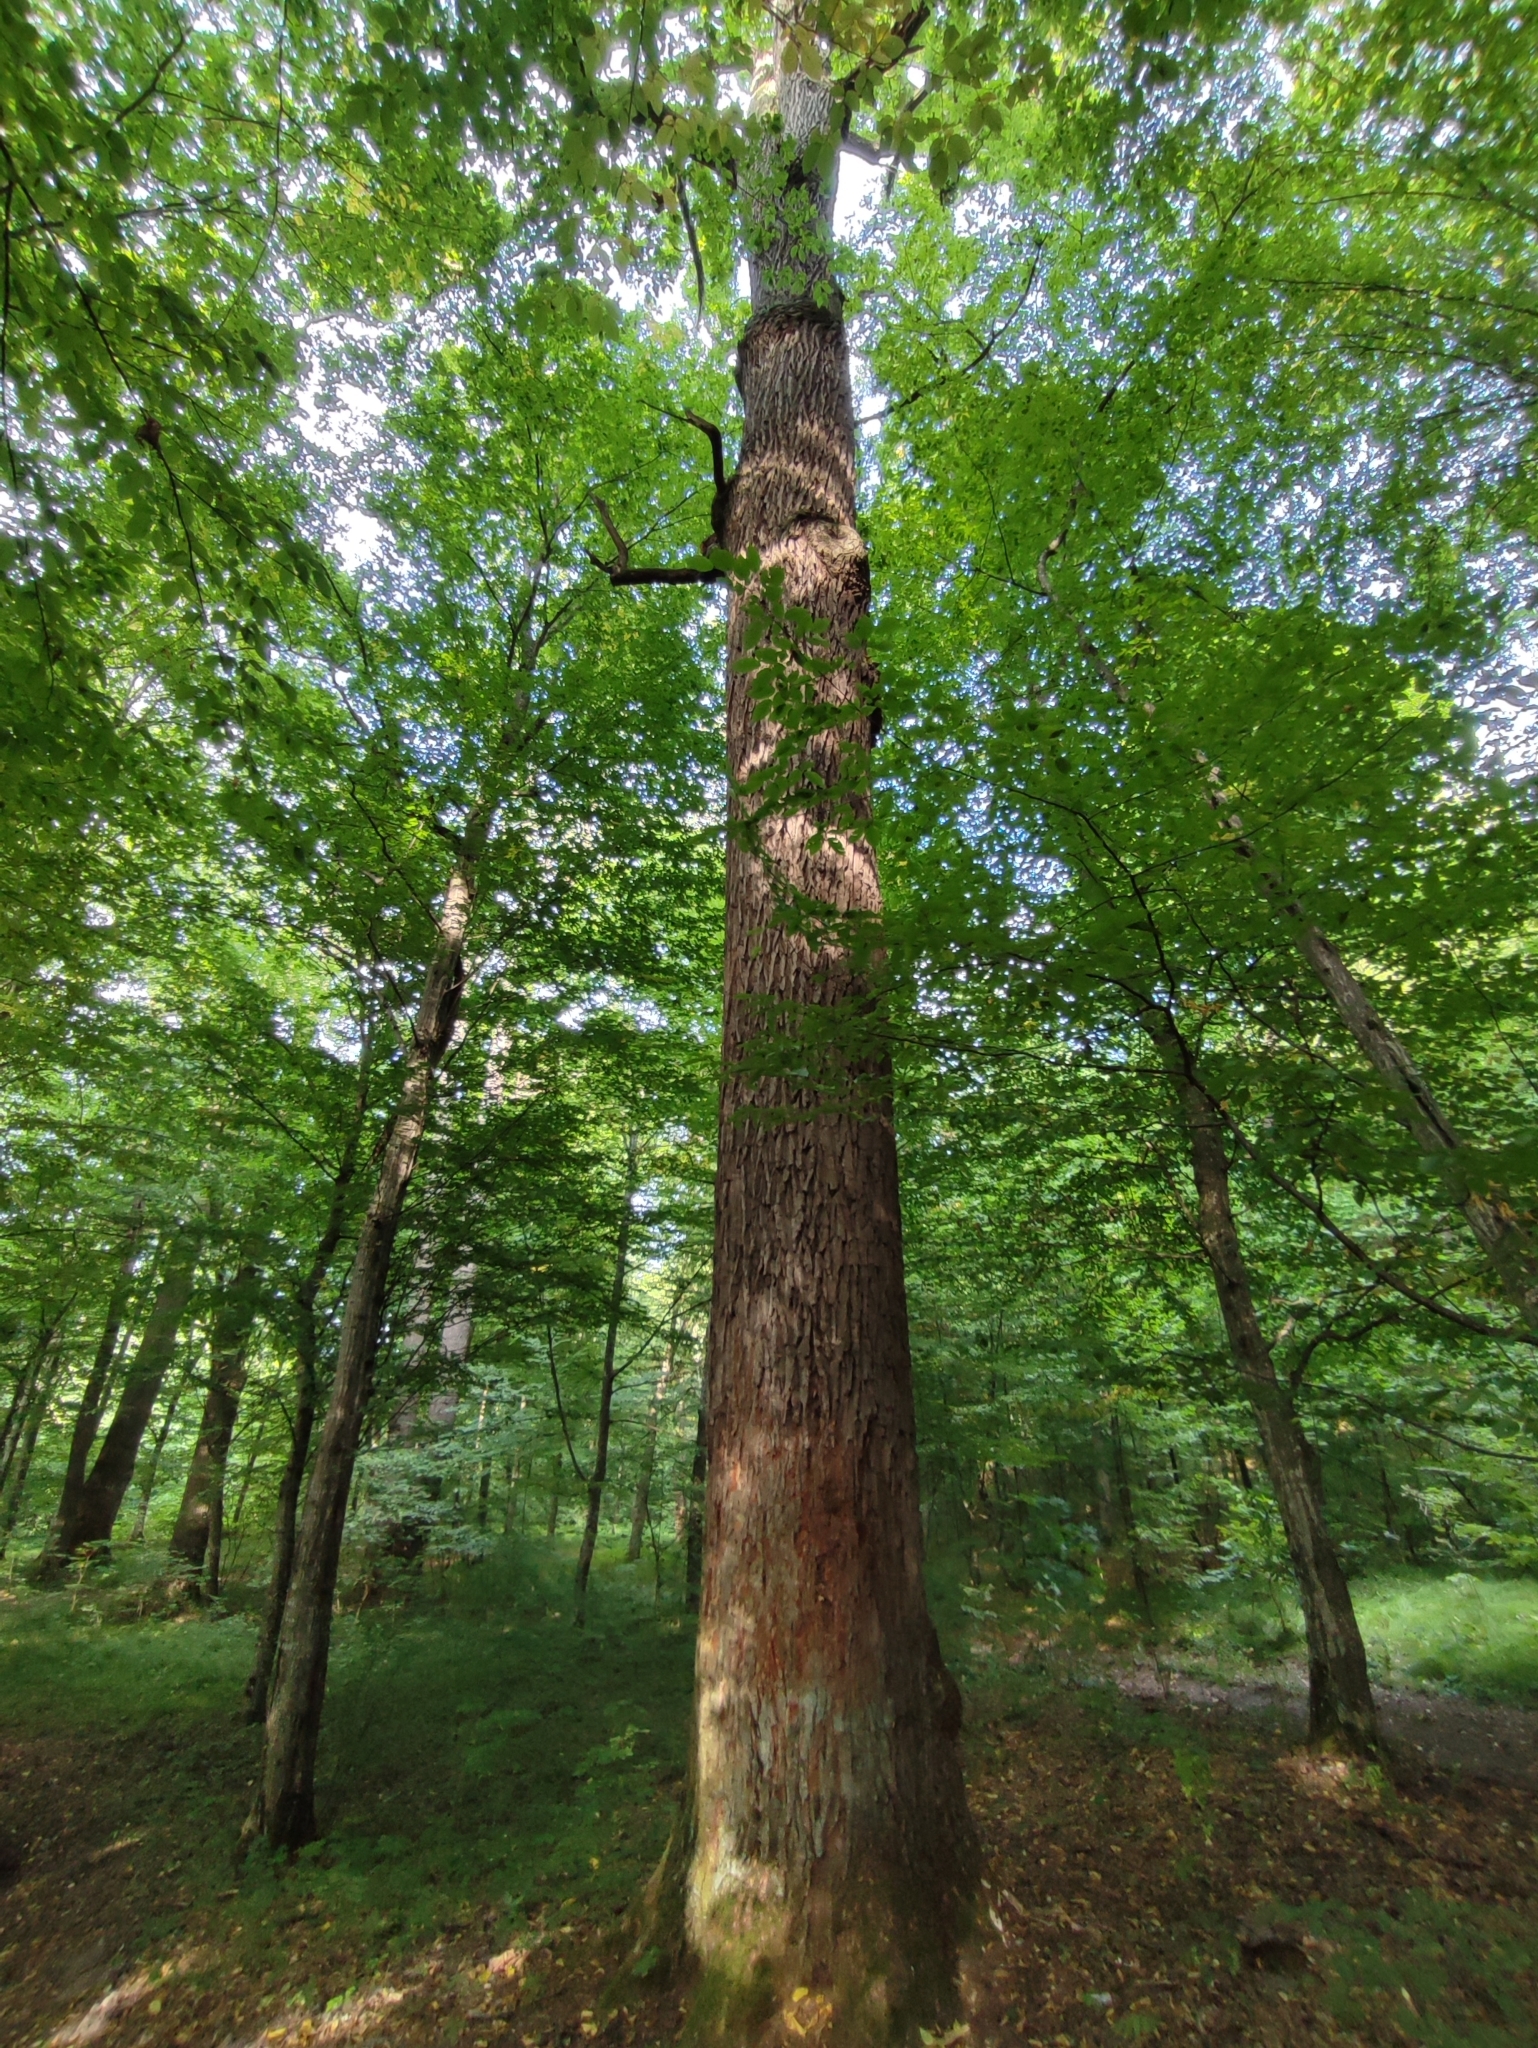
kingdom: Plantae
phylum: Tracheophyta
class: Magnoliopsida
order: Fagales
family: Fagaceae
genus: Quercus
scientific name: Quercus robur
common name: Pedunculate oak
